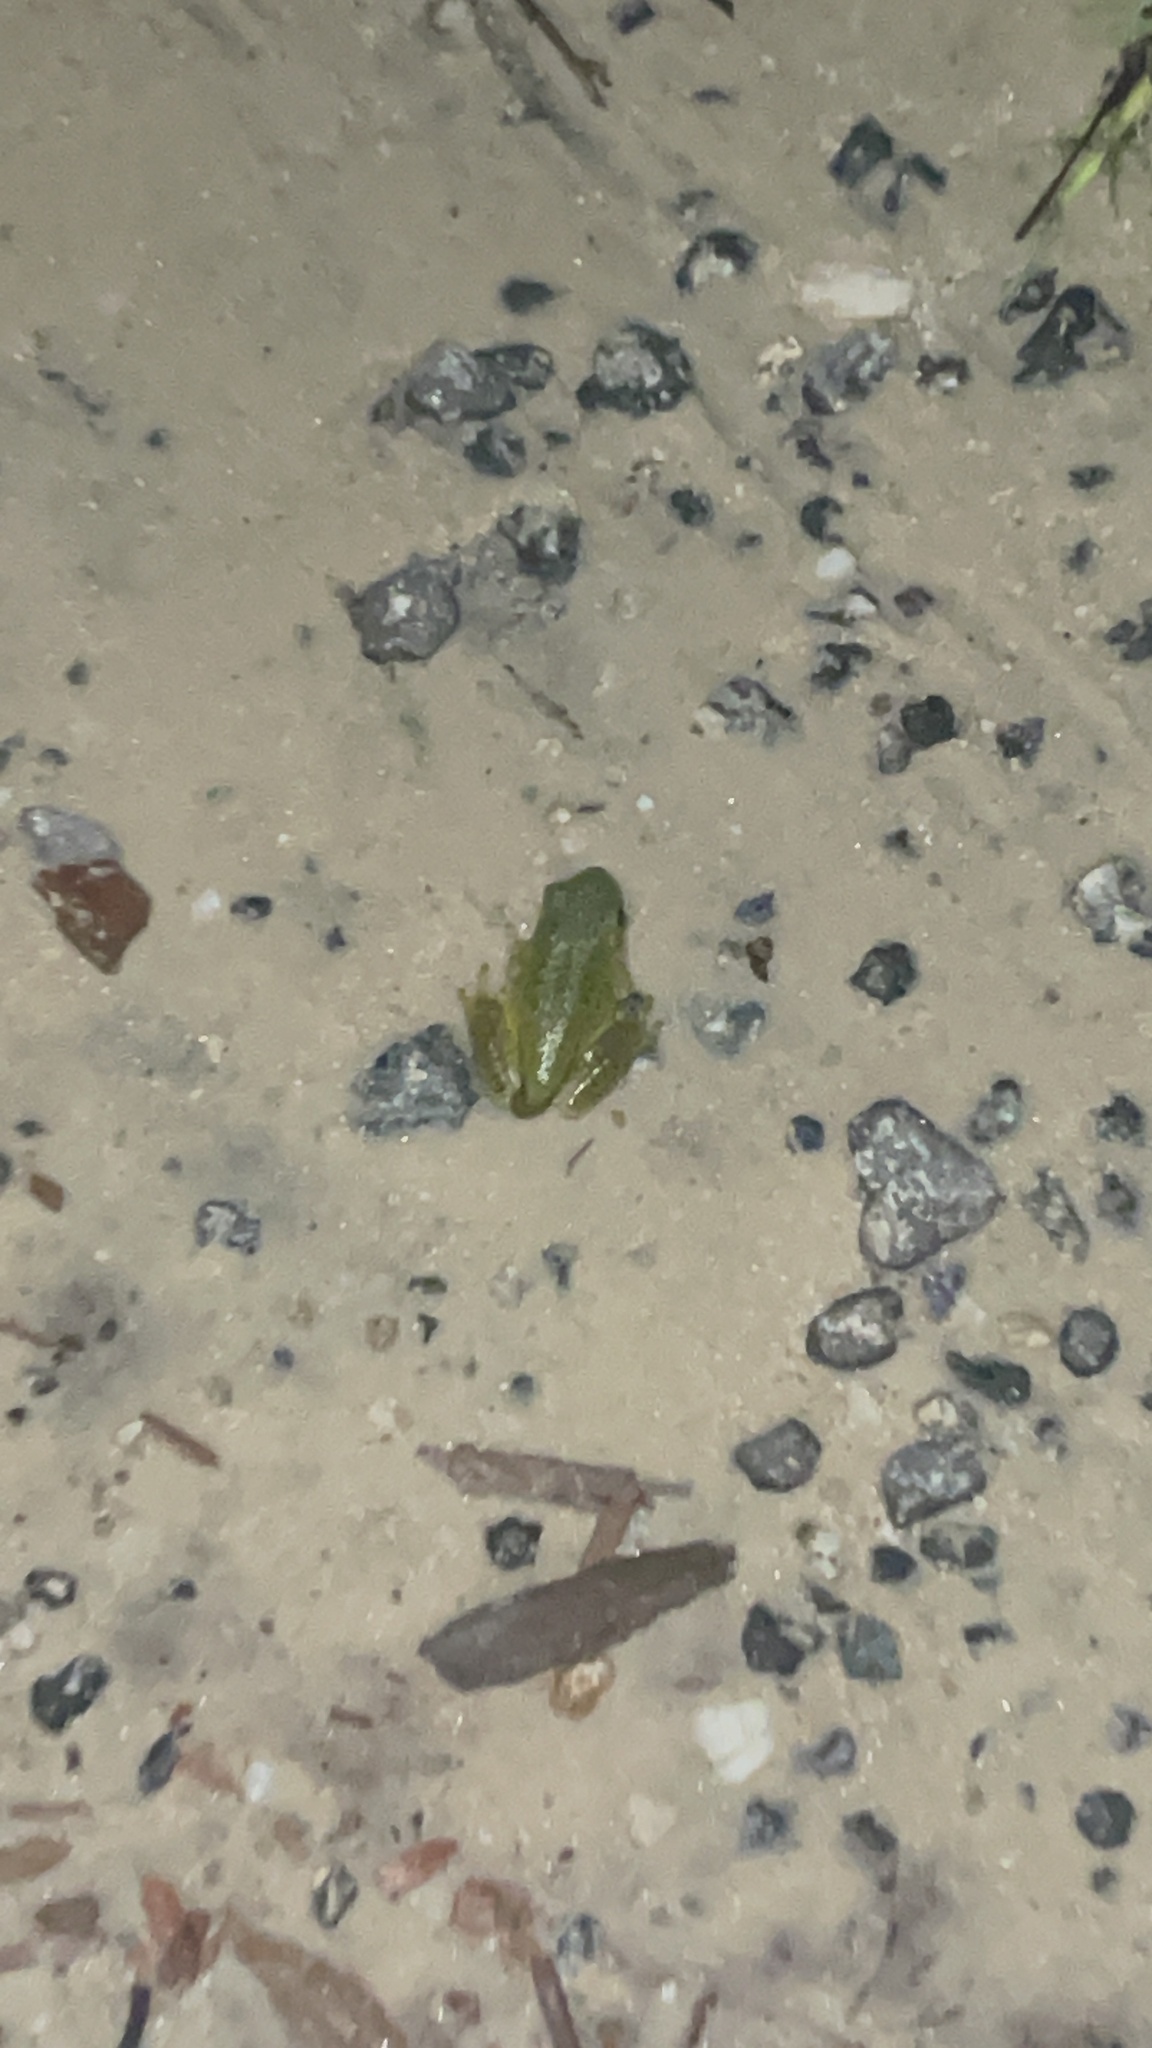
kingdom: Animalia
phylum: Chordata
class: Amphibia
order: Anura
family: Hylidae
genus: Dryophytes
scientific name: Dryophytes gratiosus
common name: Barking treefrog
